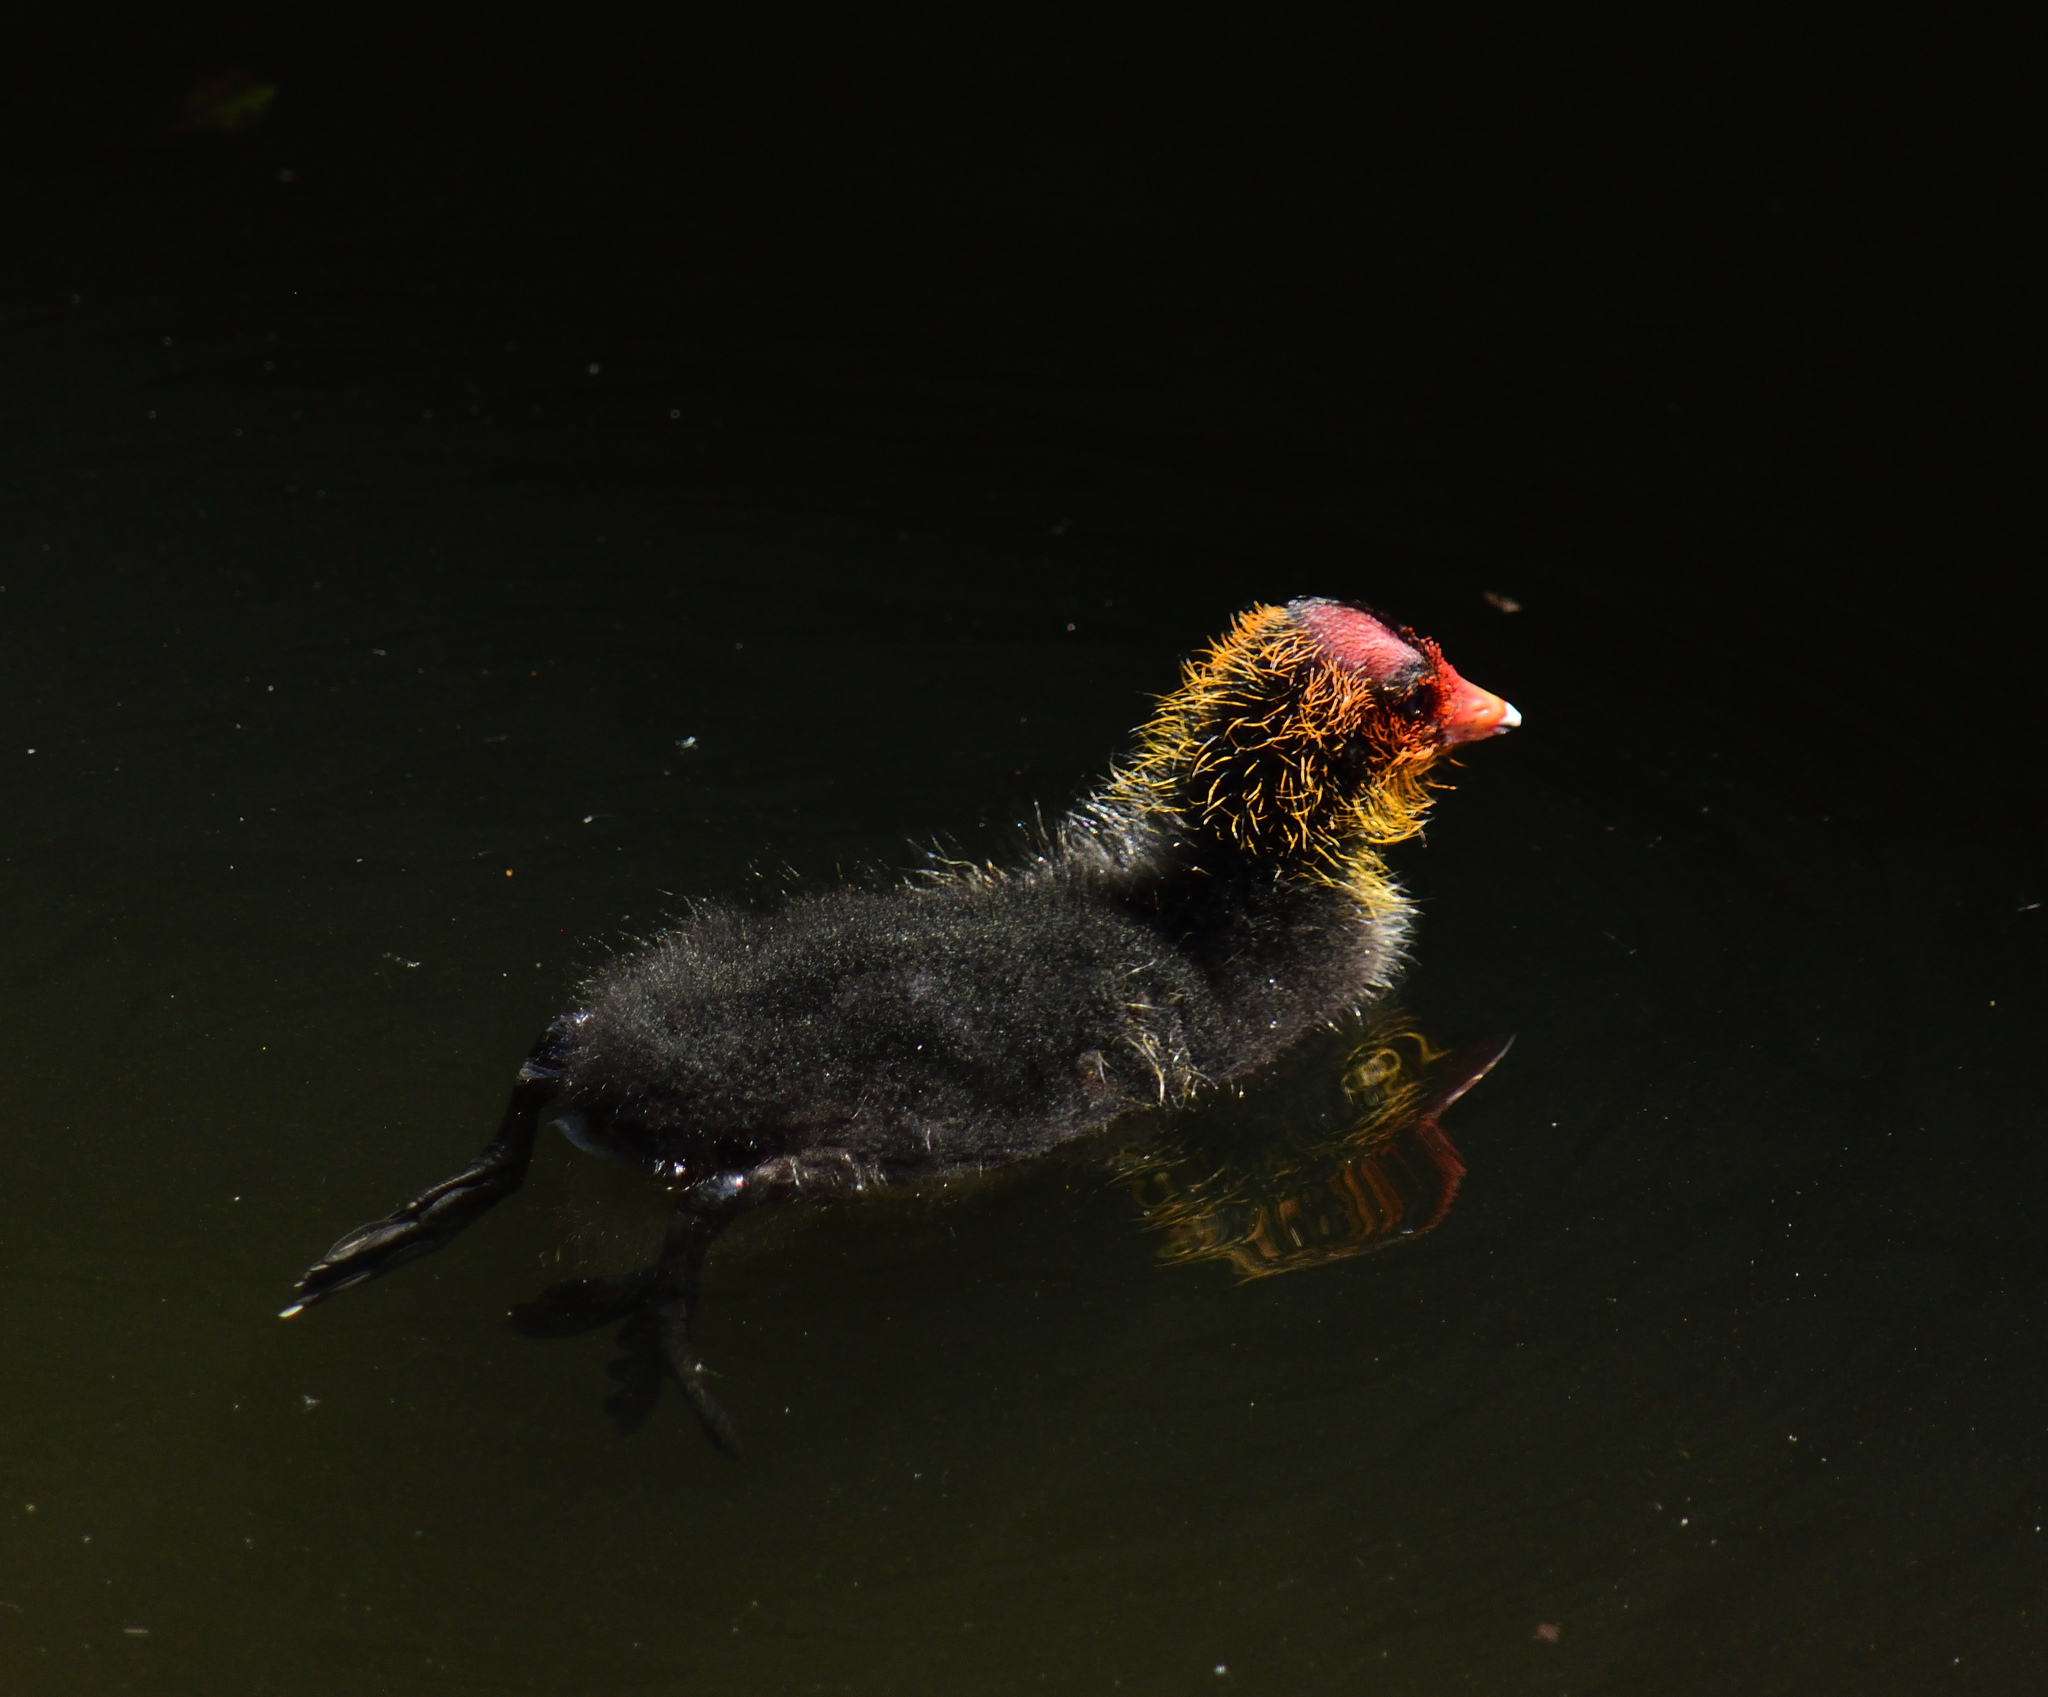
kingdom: Animalia
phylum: Chordata
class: Aves
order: Gruiformes
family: Rallidae
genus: Fulica
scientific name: Fulica atra
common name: Eurasian coot
